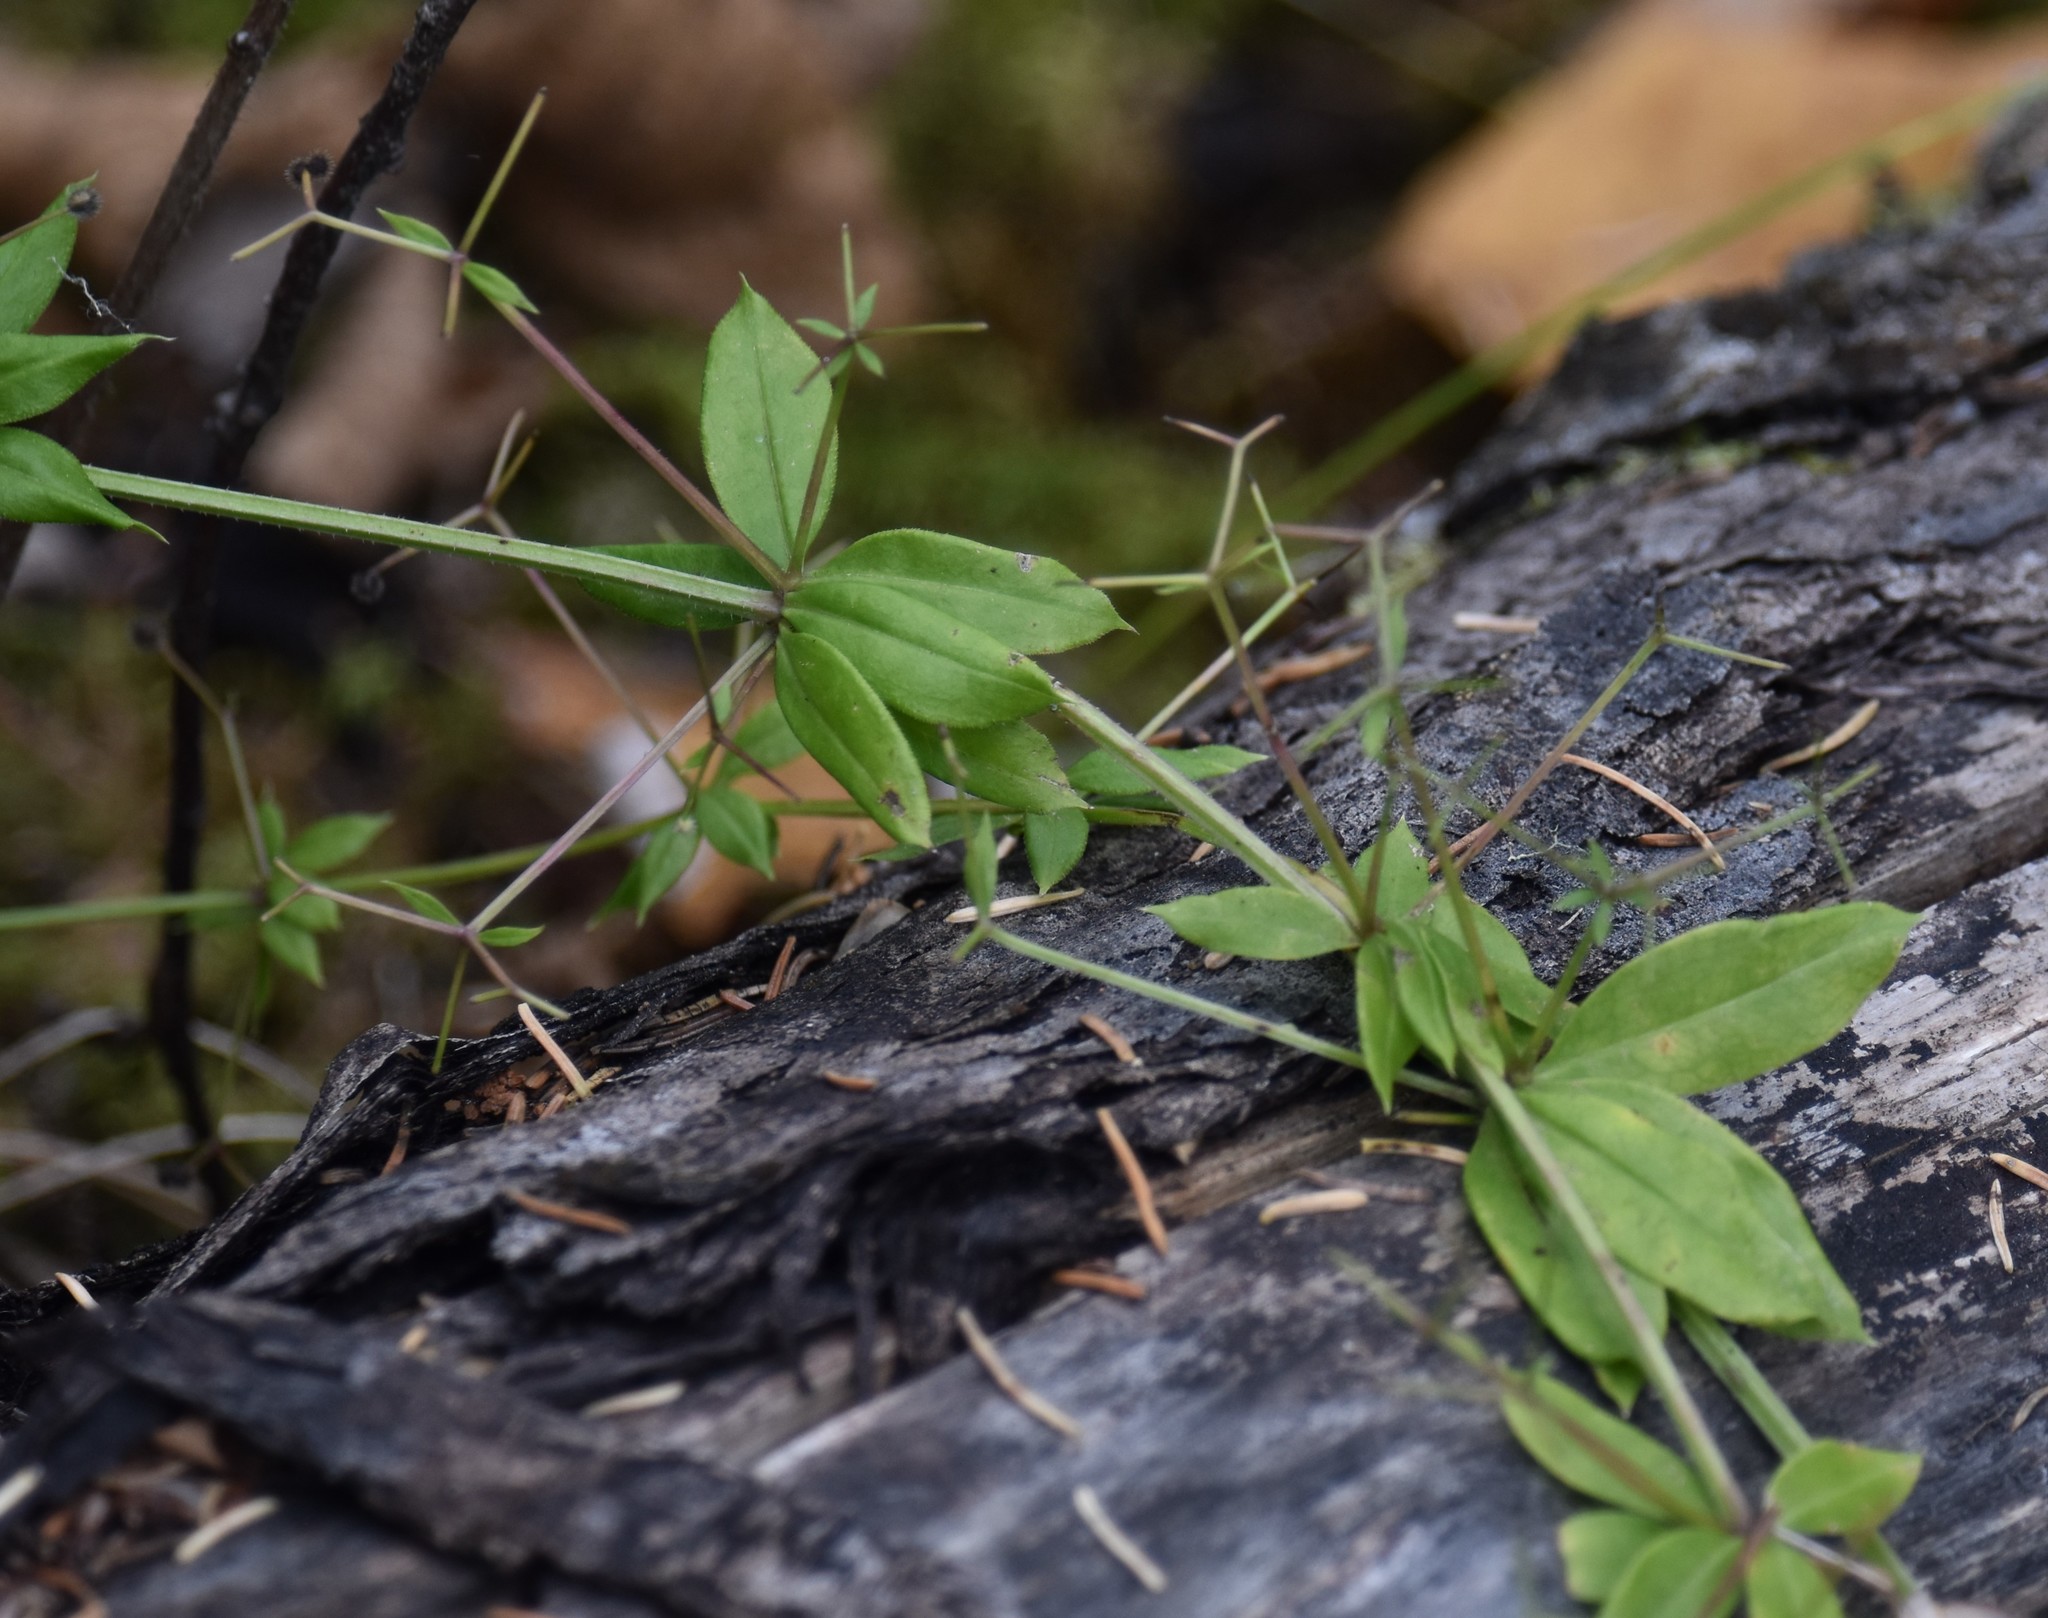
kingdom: Plantae
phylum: Tracheophyta
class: Magnoliopsida
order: Gentianales
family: Rubiaceae
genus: Galium
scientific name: Galium triflorum
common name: Fragrant bedstraw
